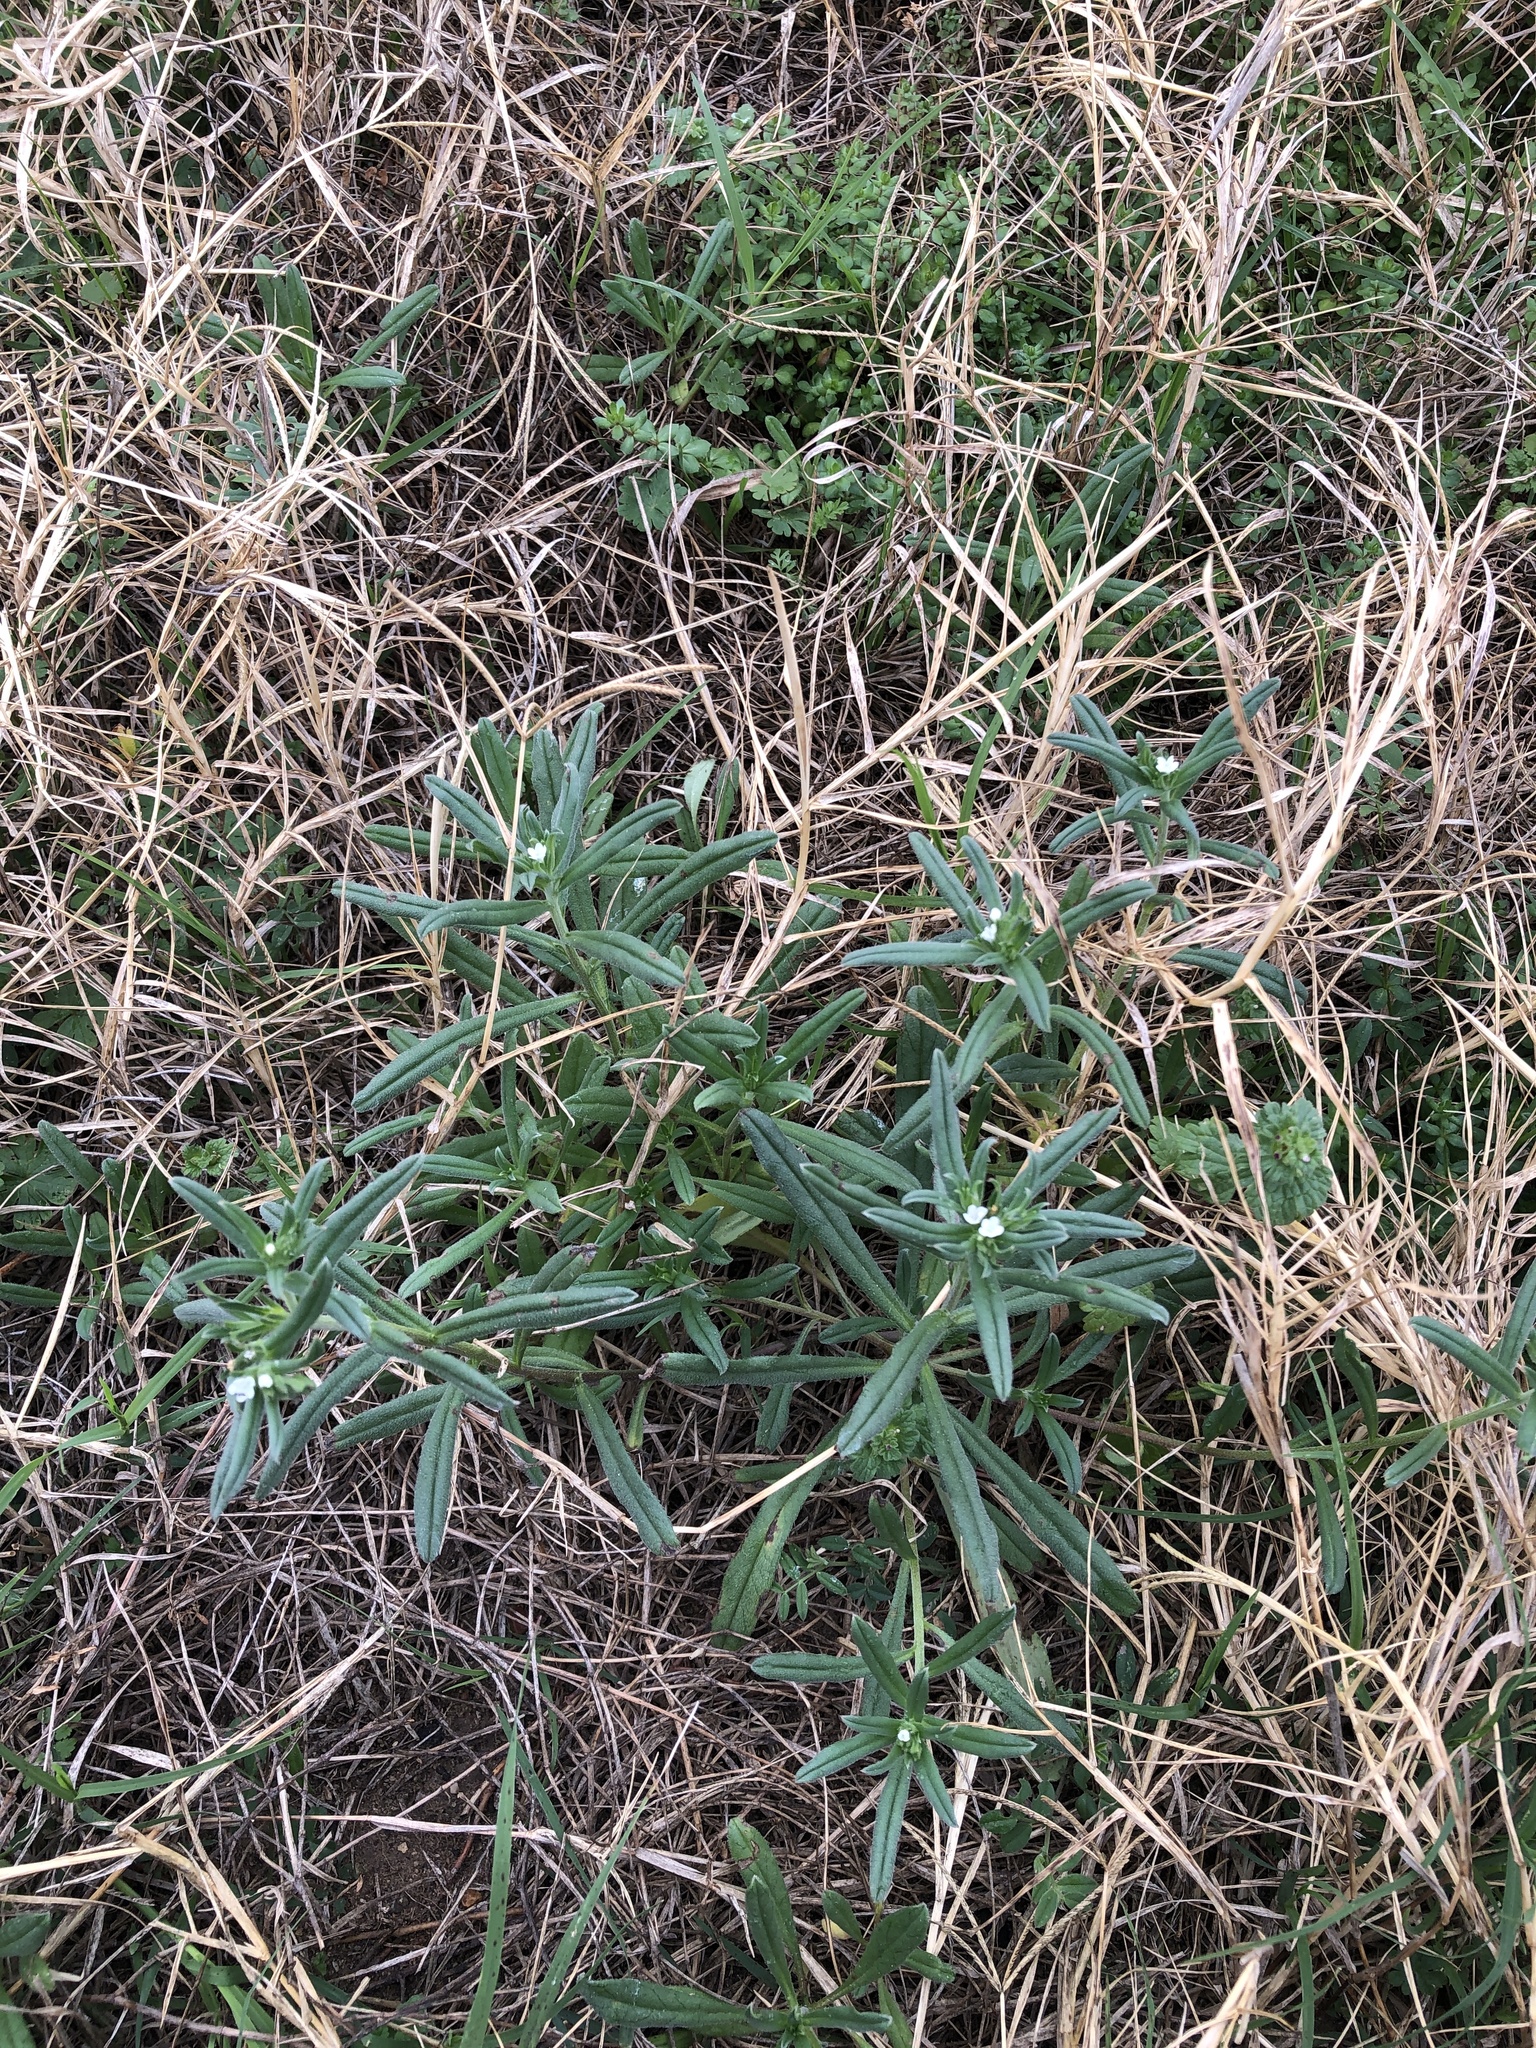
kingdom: Plantae
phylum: Tracheophyta
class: Magnoliopsida
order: Boraginales
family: Boraginaceae
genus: Buglossoides
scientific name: Buglossoides arvensis
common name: Corn gromwell
